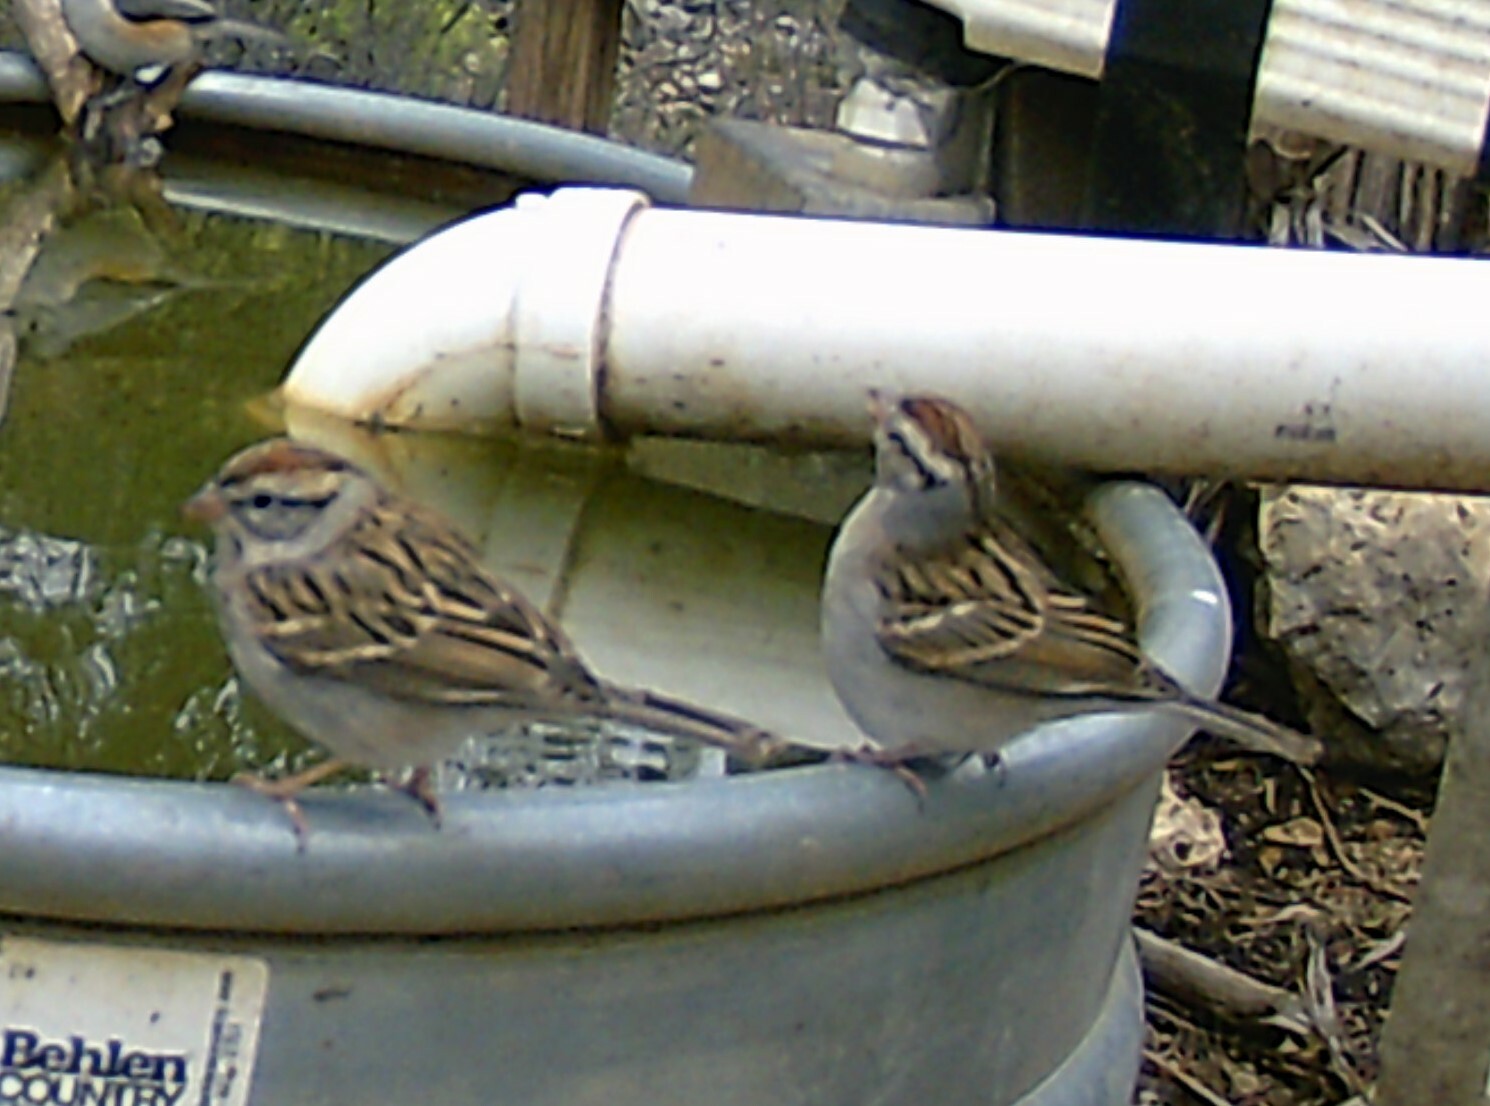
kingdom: Animalia
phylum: Chordata
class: Aves
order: Passeriformes
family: Passerellidae
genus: Spizella
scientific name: Spizella passerina
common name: Chipping sparrow
